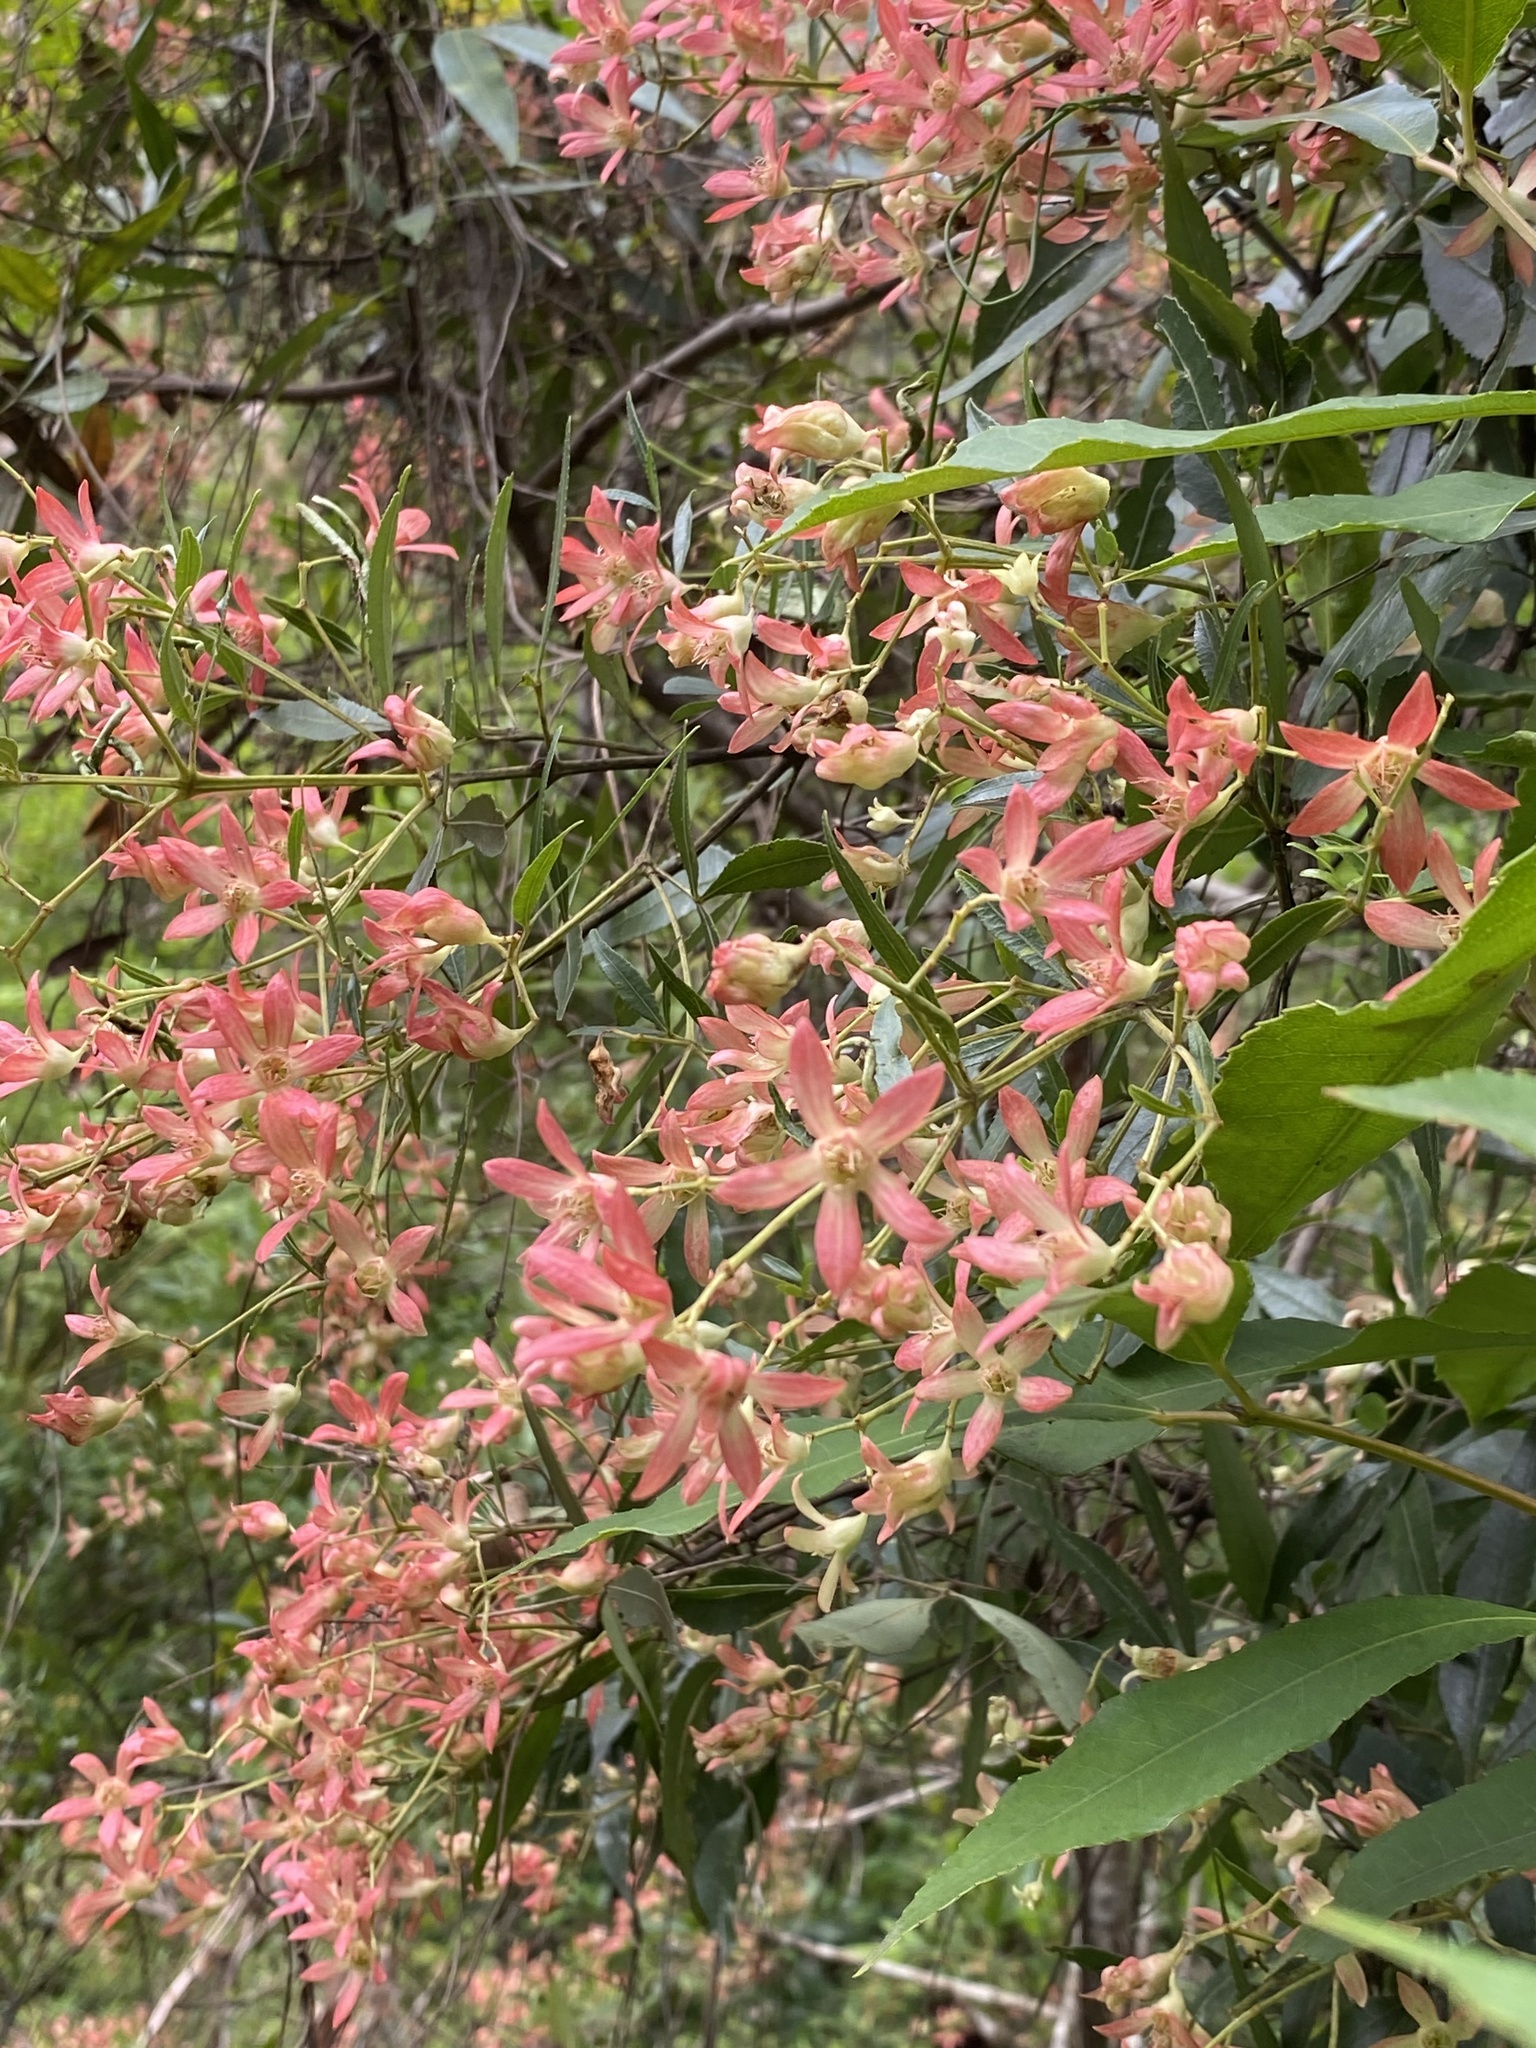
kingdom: Plantae
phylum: Tracheophyta
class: Magnoliopsida
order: Oxalidales
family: Cunoniaceae
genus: Ceratopetalum
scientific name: Ceratopetalum gummiferum
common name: Christmasbush
